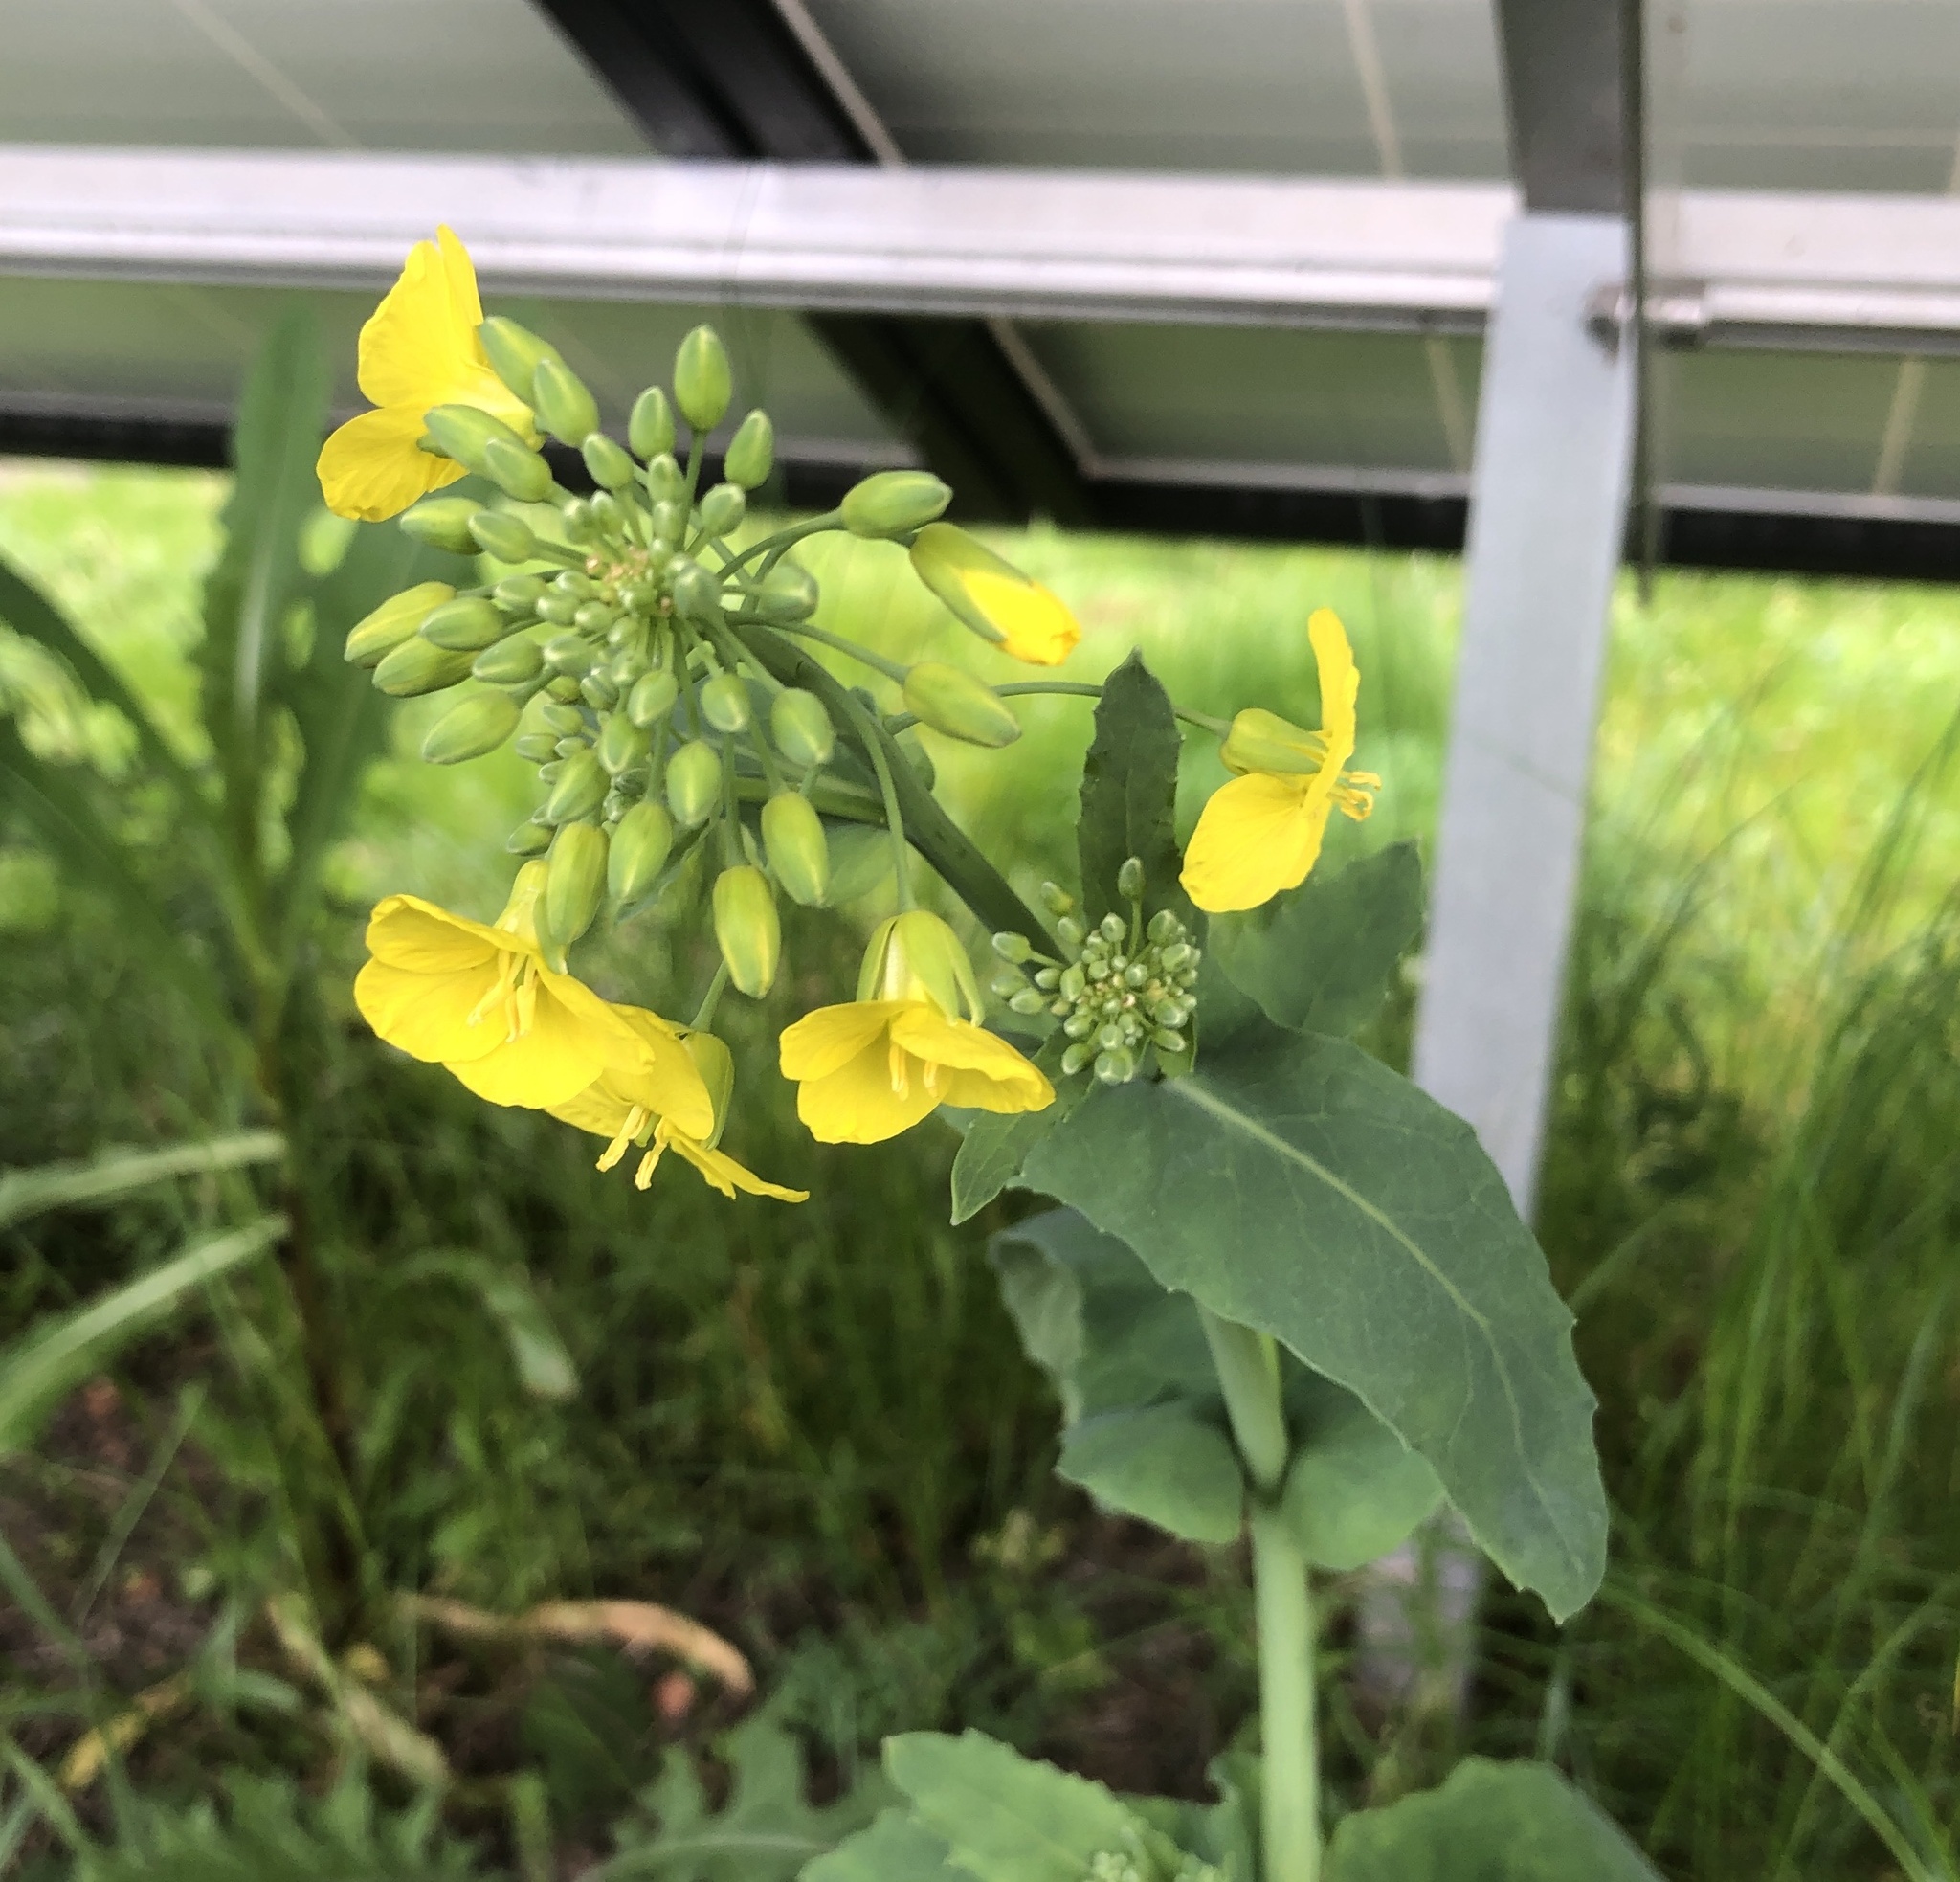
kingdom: Plantae
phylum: Tracheophyta
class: Magnoliopsida
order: Brassicales
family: Brassicaceae
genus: Brassica
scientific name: Brassica napus
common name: Rape
